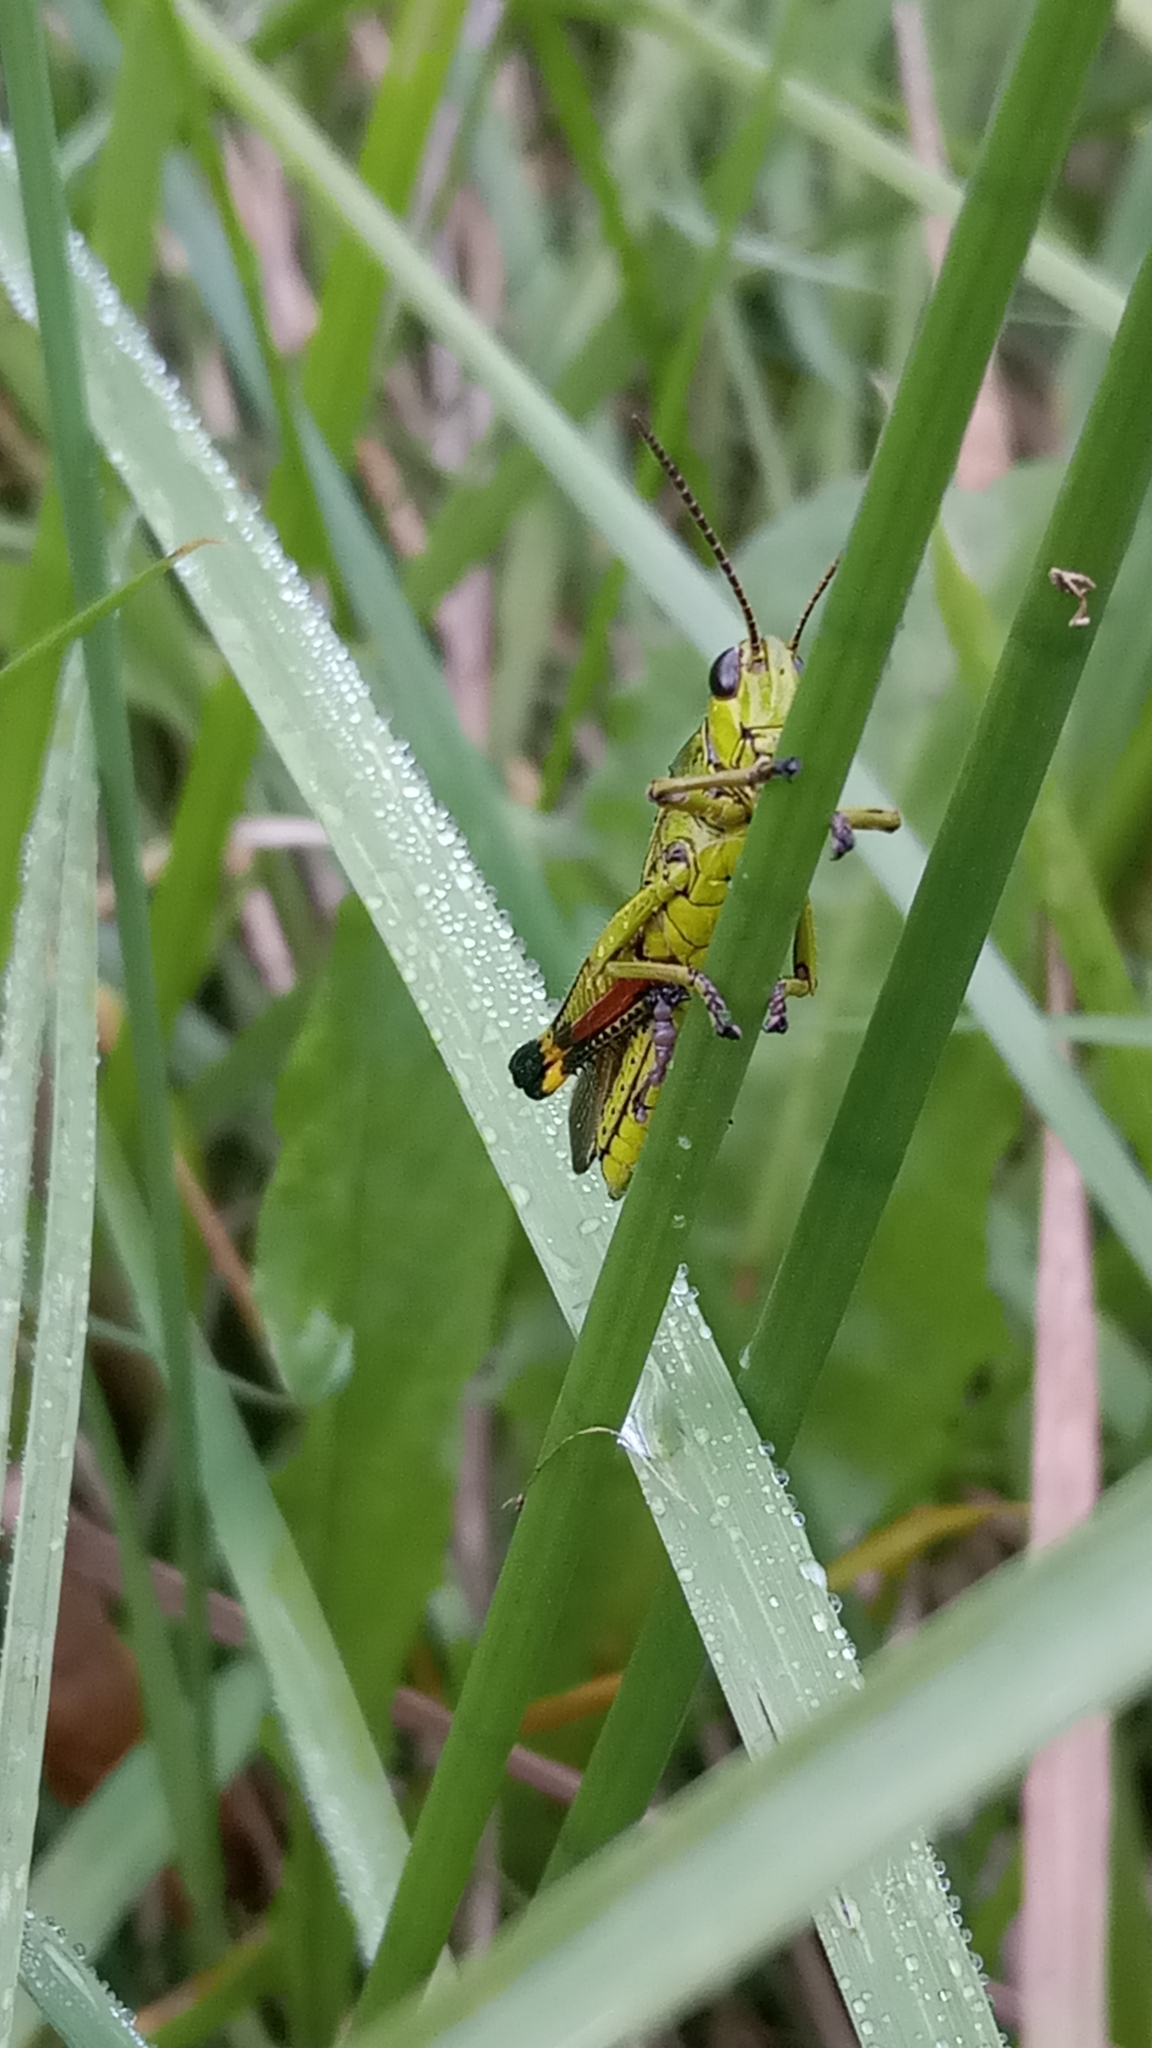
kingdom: Animalia
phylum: Arthropoda
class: Insecta
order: Orthoptera
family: Acrididae
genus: Stethophyma
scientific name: Stethophyma grossum
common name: Large marsh grasshopper
